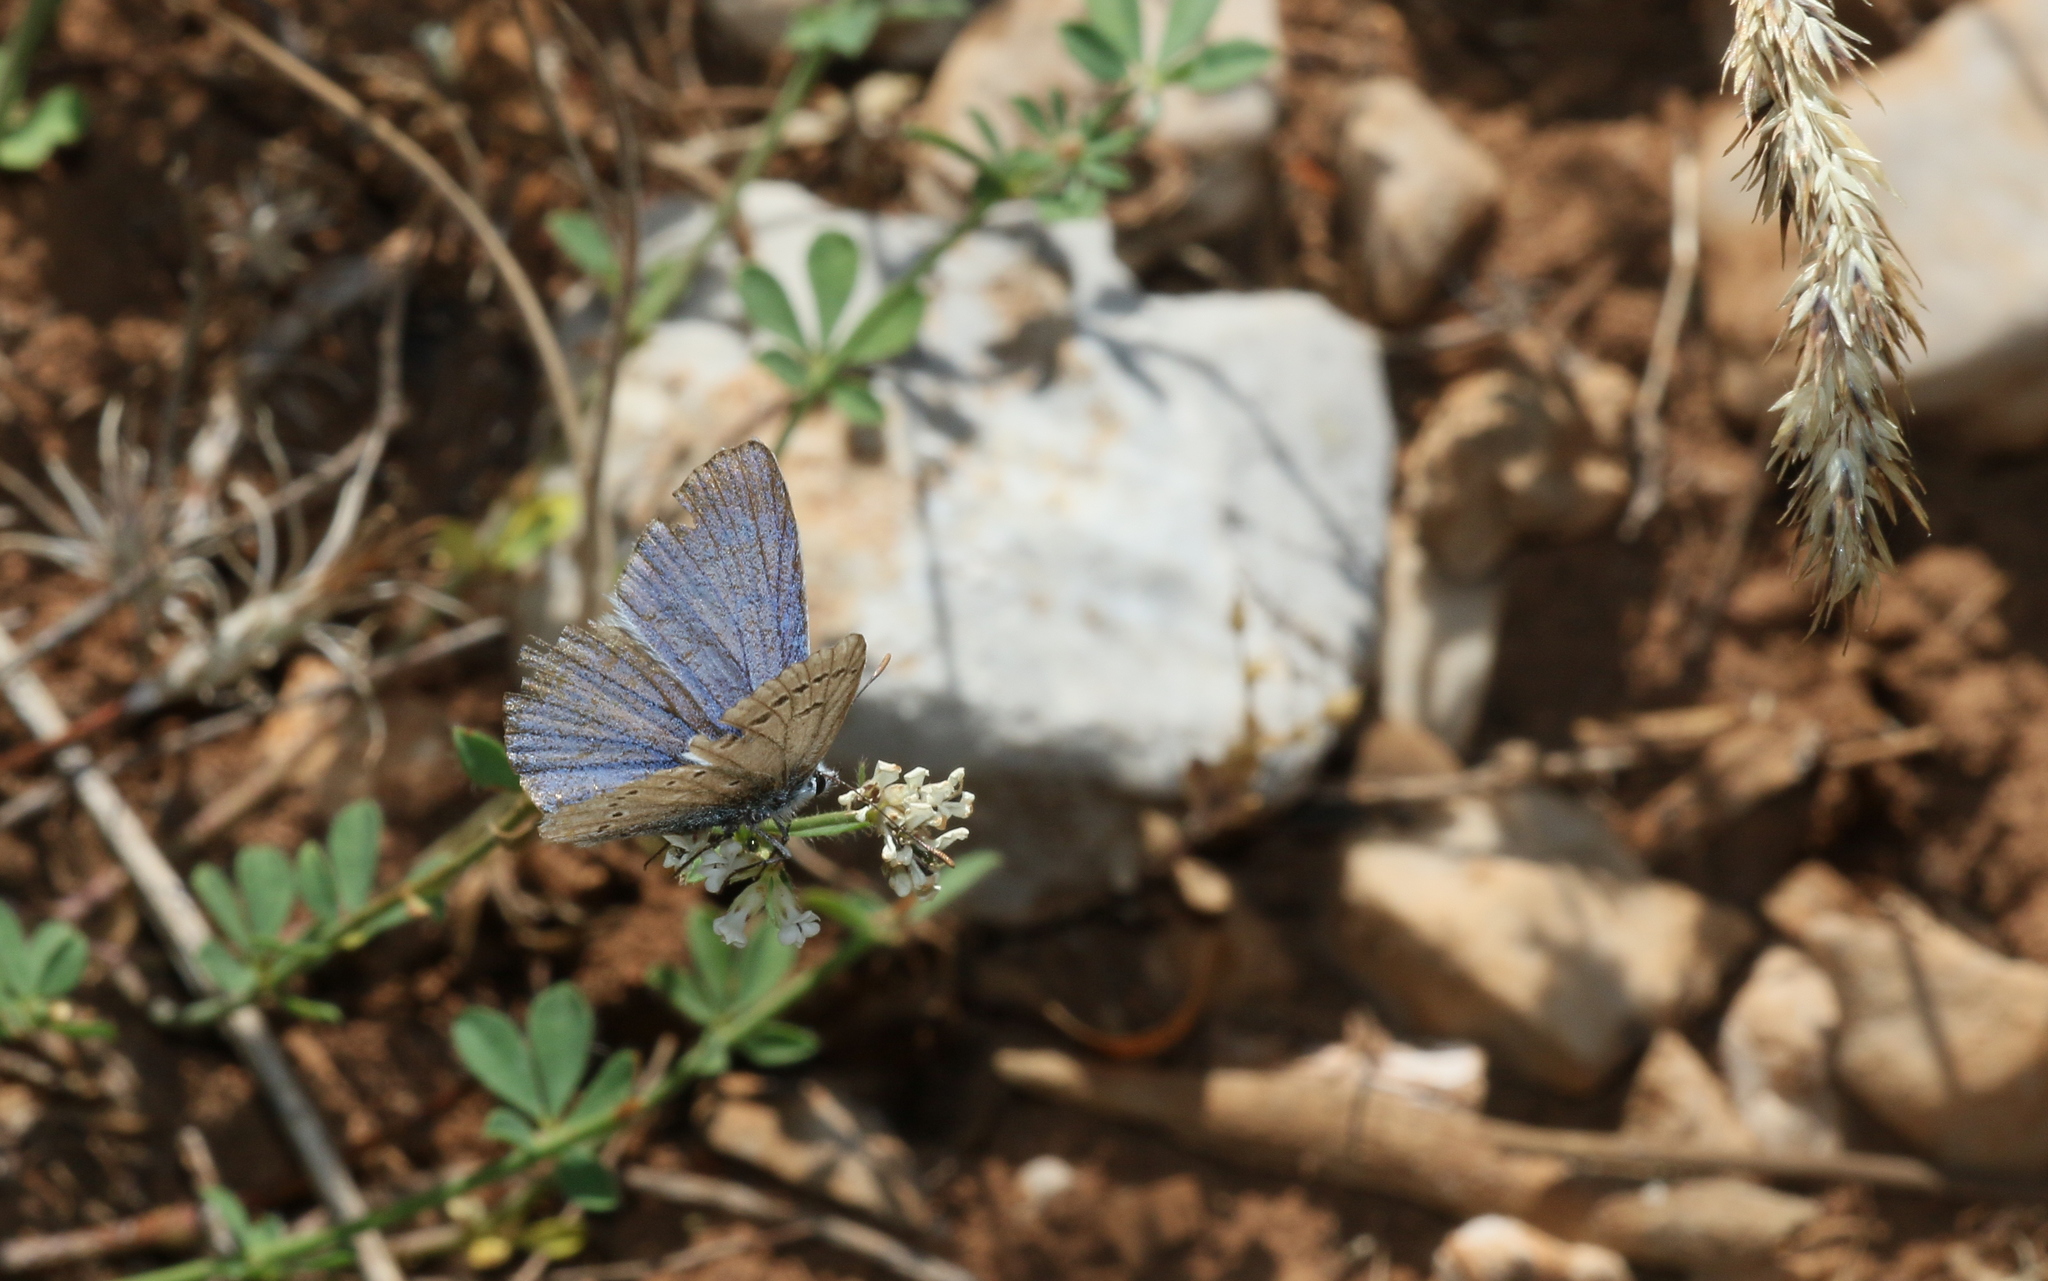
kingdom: Animalia
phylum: Arthropoda
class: Insecta
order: Lepidoptera
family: Lycaenidae
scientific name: Lycaenidae
